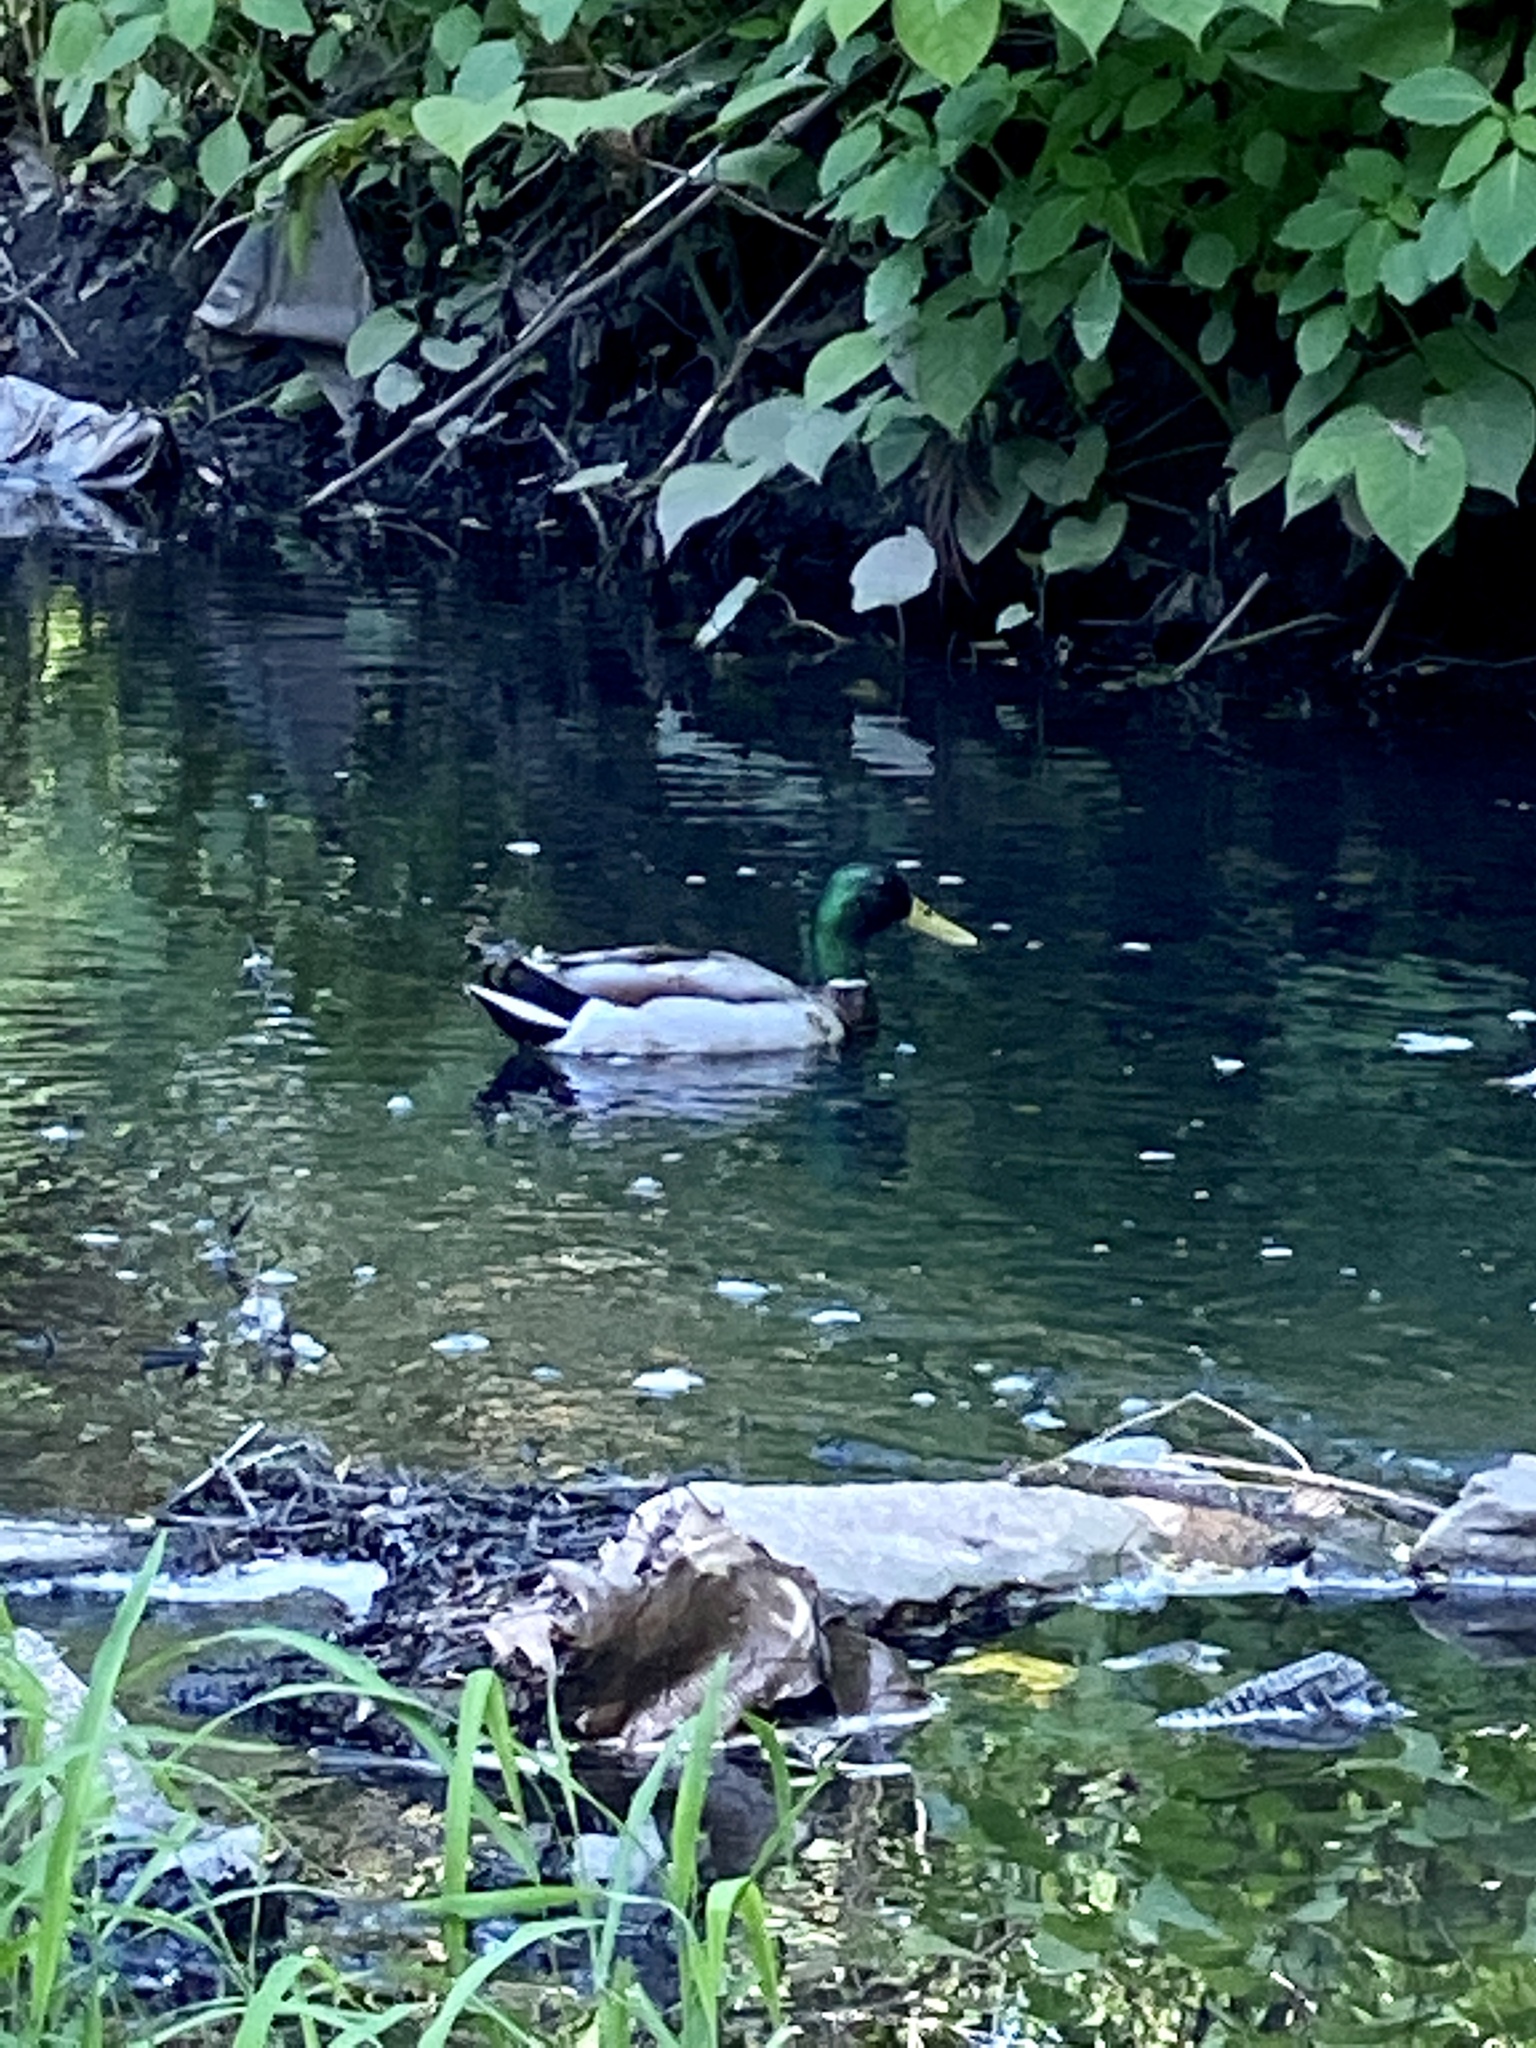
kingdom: Animalia
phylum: Chordata
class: Aves
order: Anseriformes
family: Anatidae
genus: Anas
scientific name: Anas platyrhynchos
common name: Mallard
